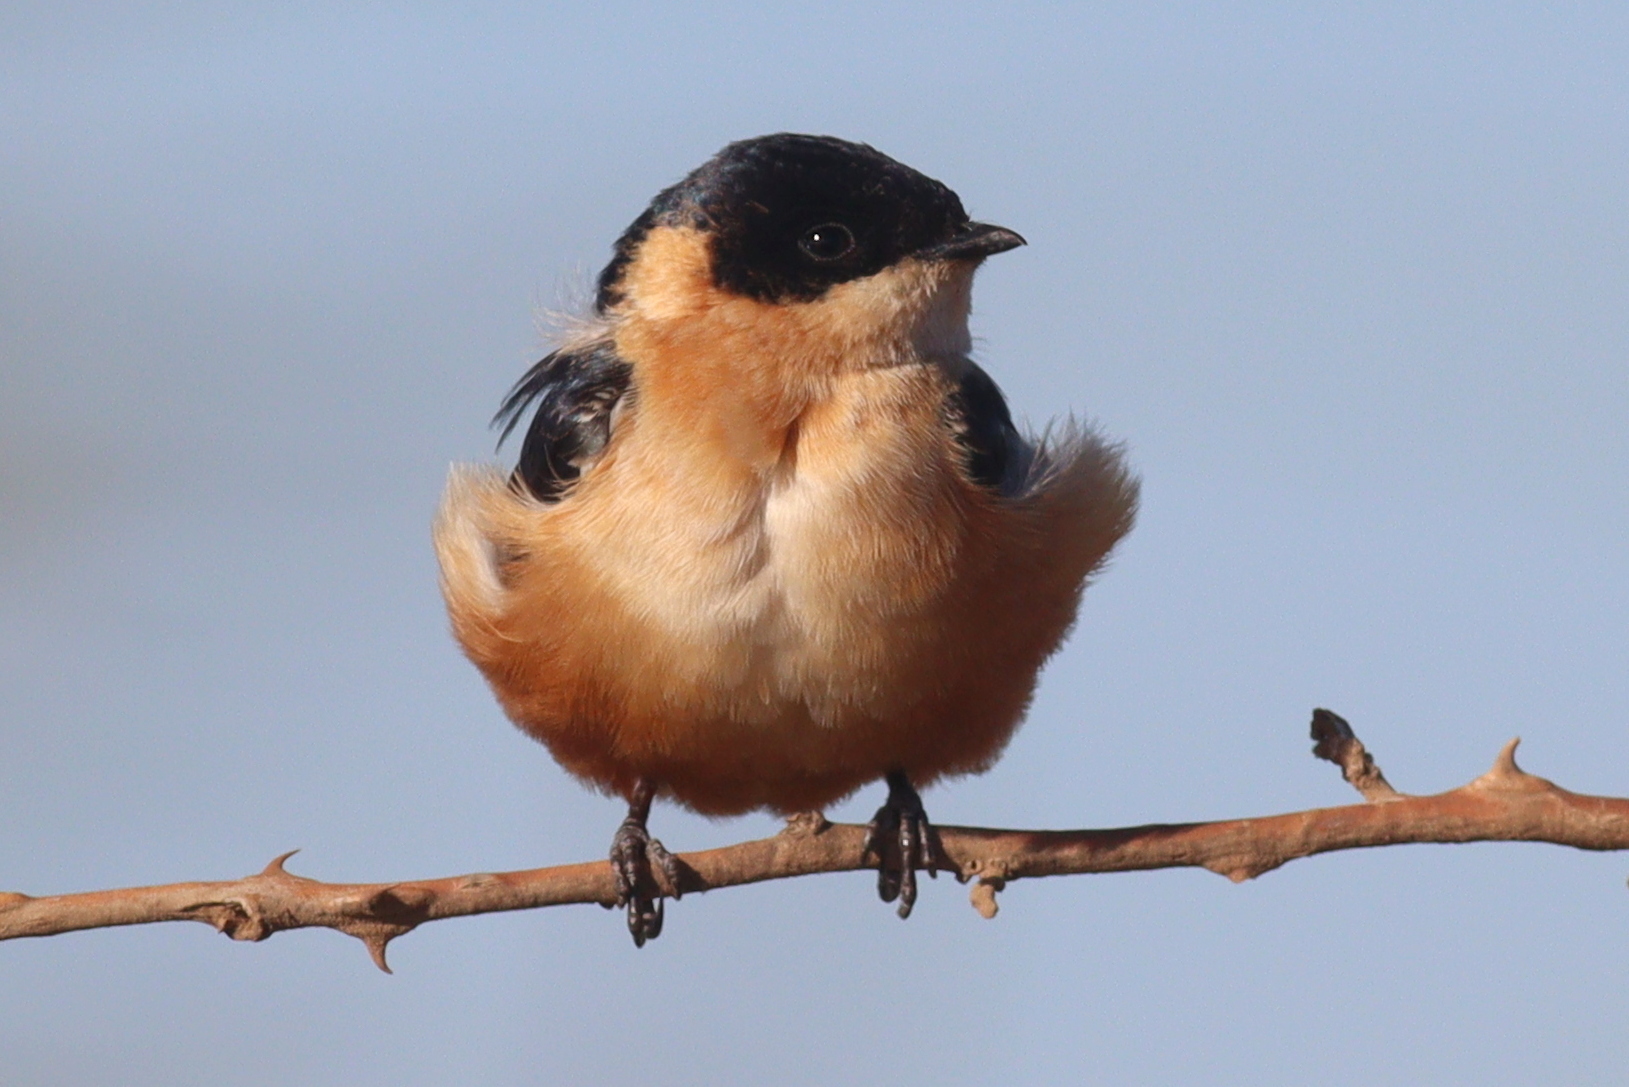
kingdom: Animalia
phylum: Chordata
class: Aves
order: Passeriformes
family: Hirundinidae
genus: Cecropis
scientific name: Cecropis semirufa
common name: Red-breasted swallow
